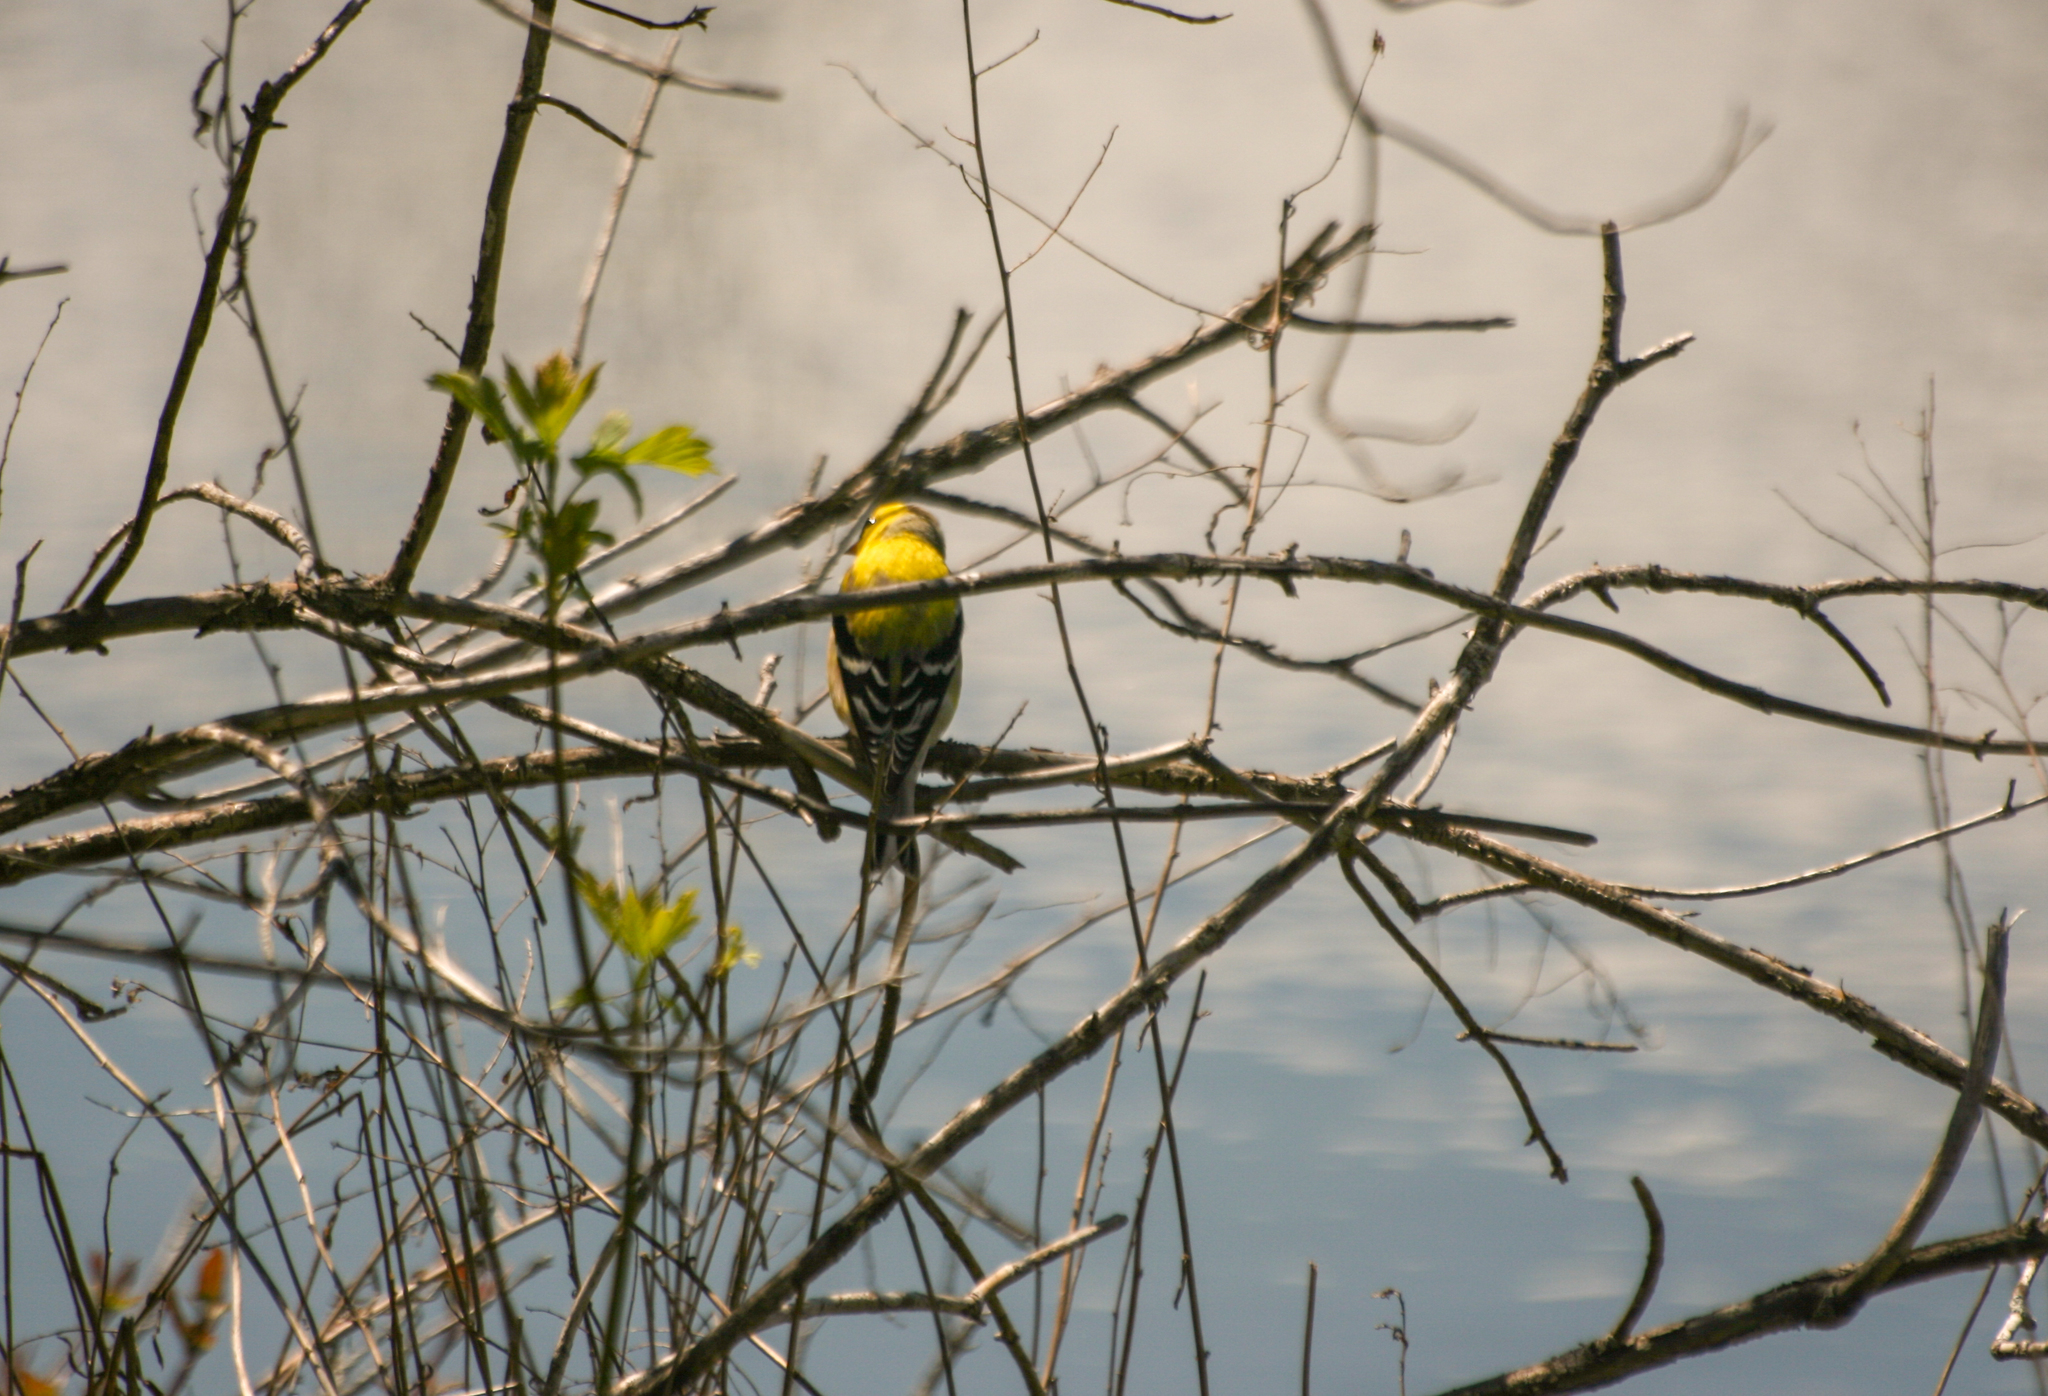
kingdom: Animalia
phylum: Chordata
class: Aves
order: Passeriformes
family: Fringillidae
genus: Spinus
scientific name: Spinus tristis
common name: American goldfinch
